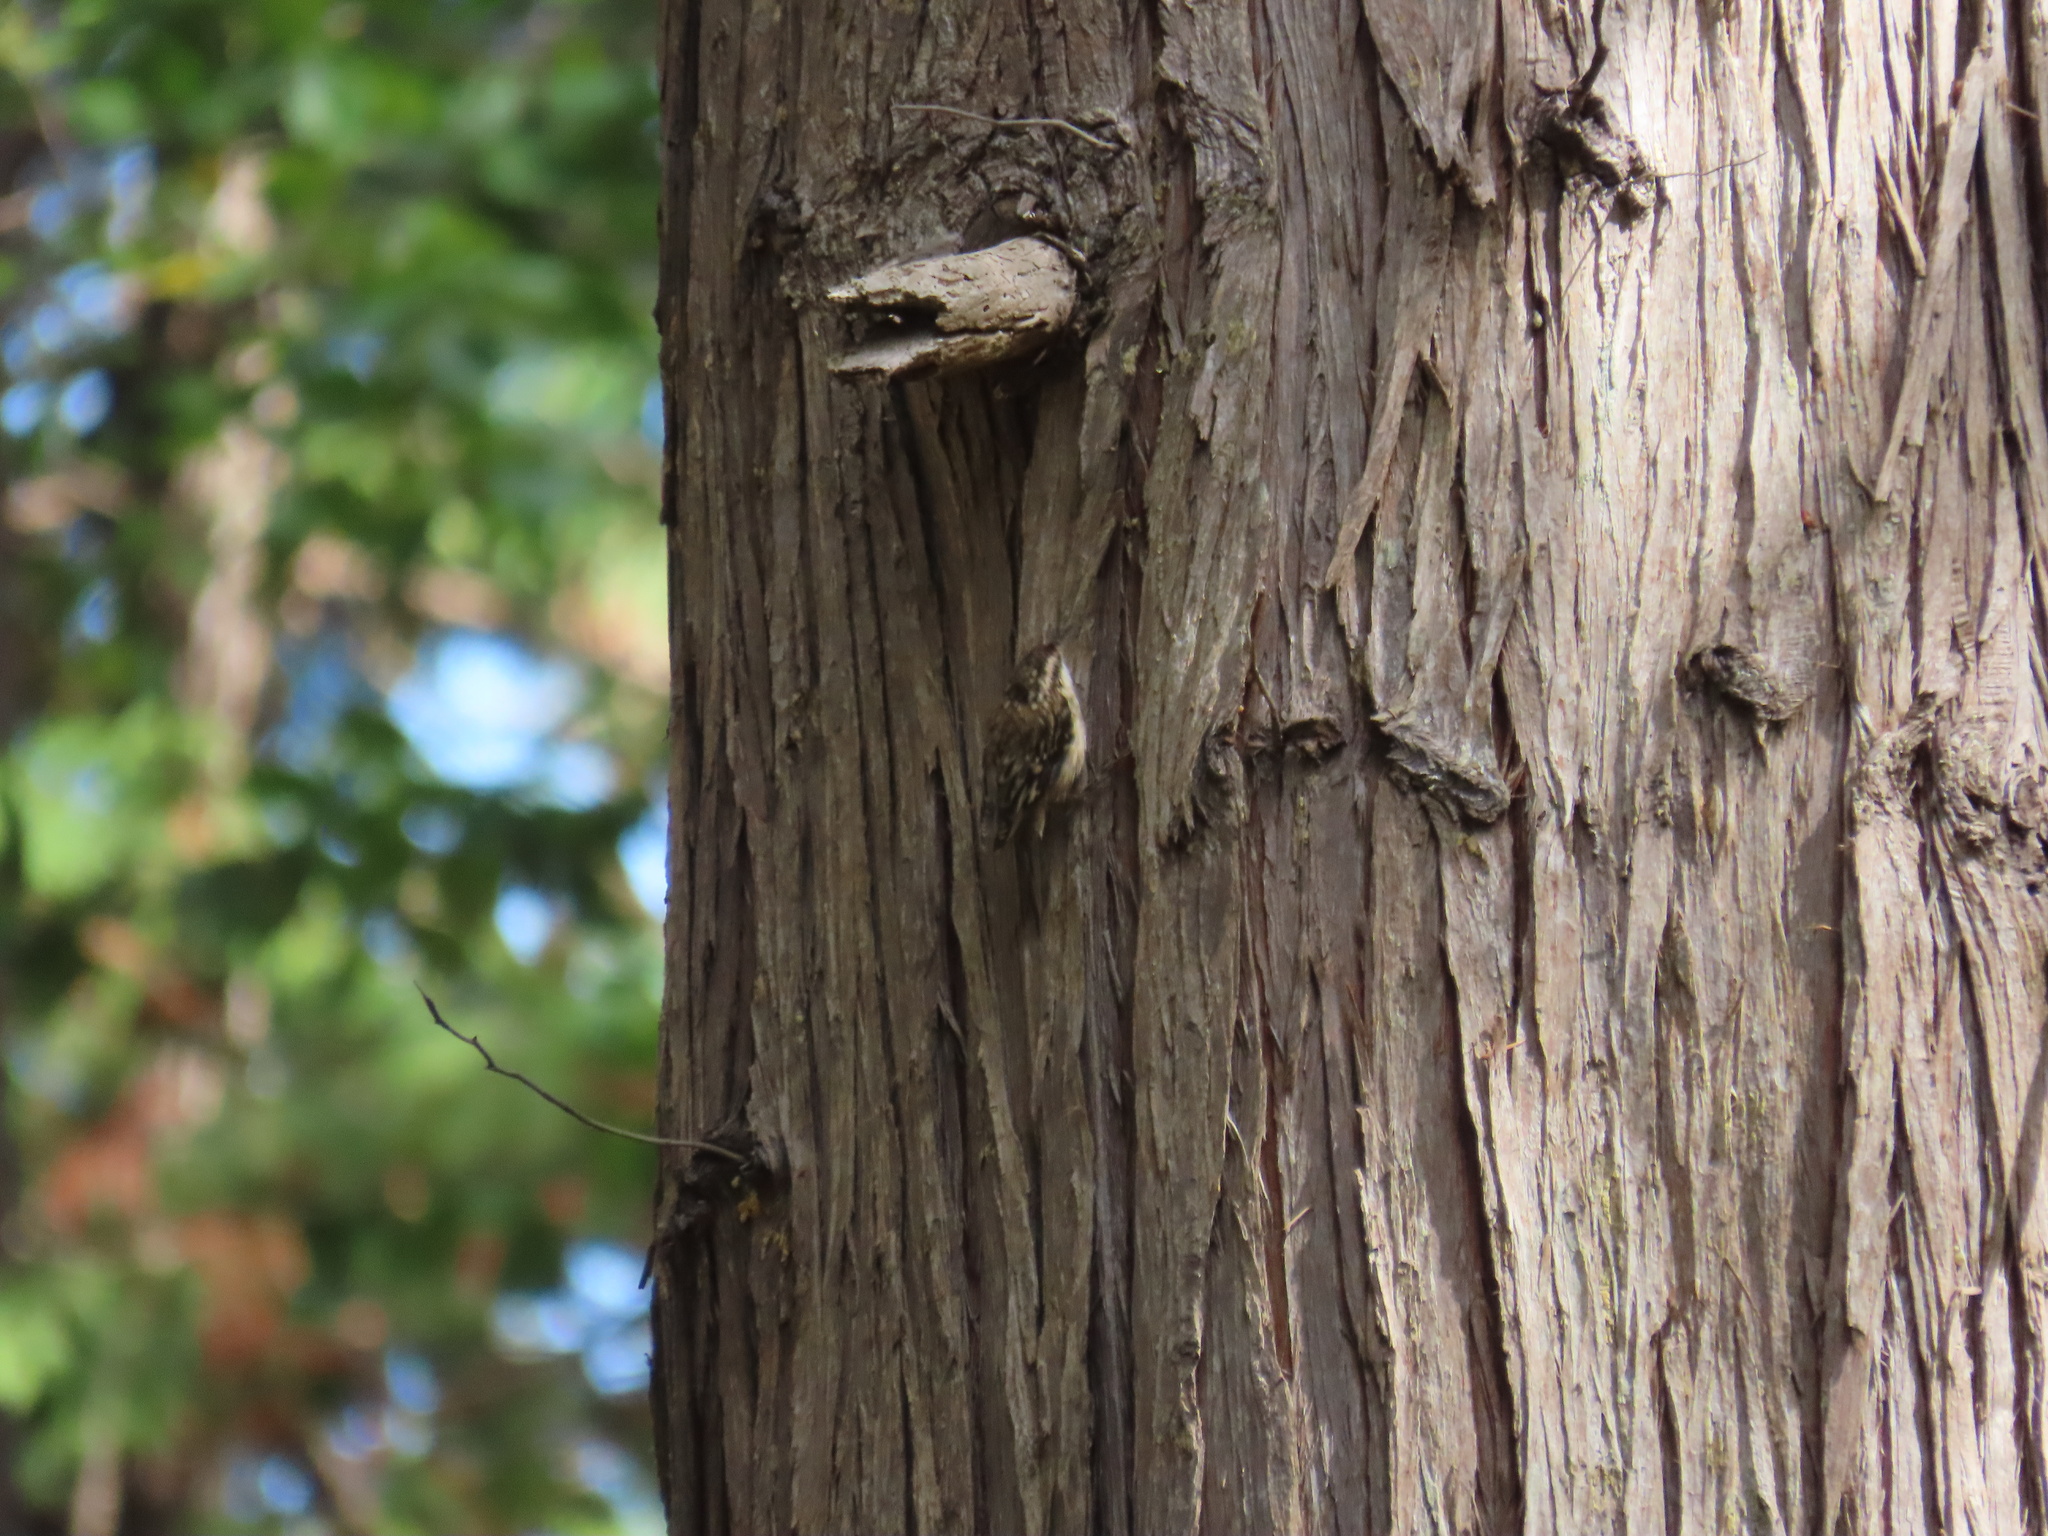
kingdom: Animalia
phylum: Chordata
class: Aves
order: Passeriformes
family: Certhiidae
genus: Certhia
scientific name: Certhia americana
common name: Brown creeper
